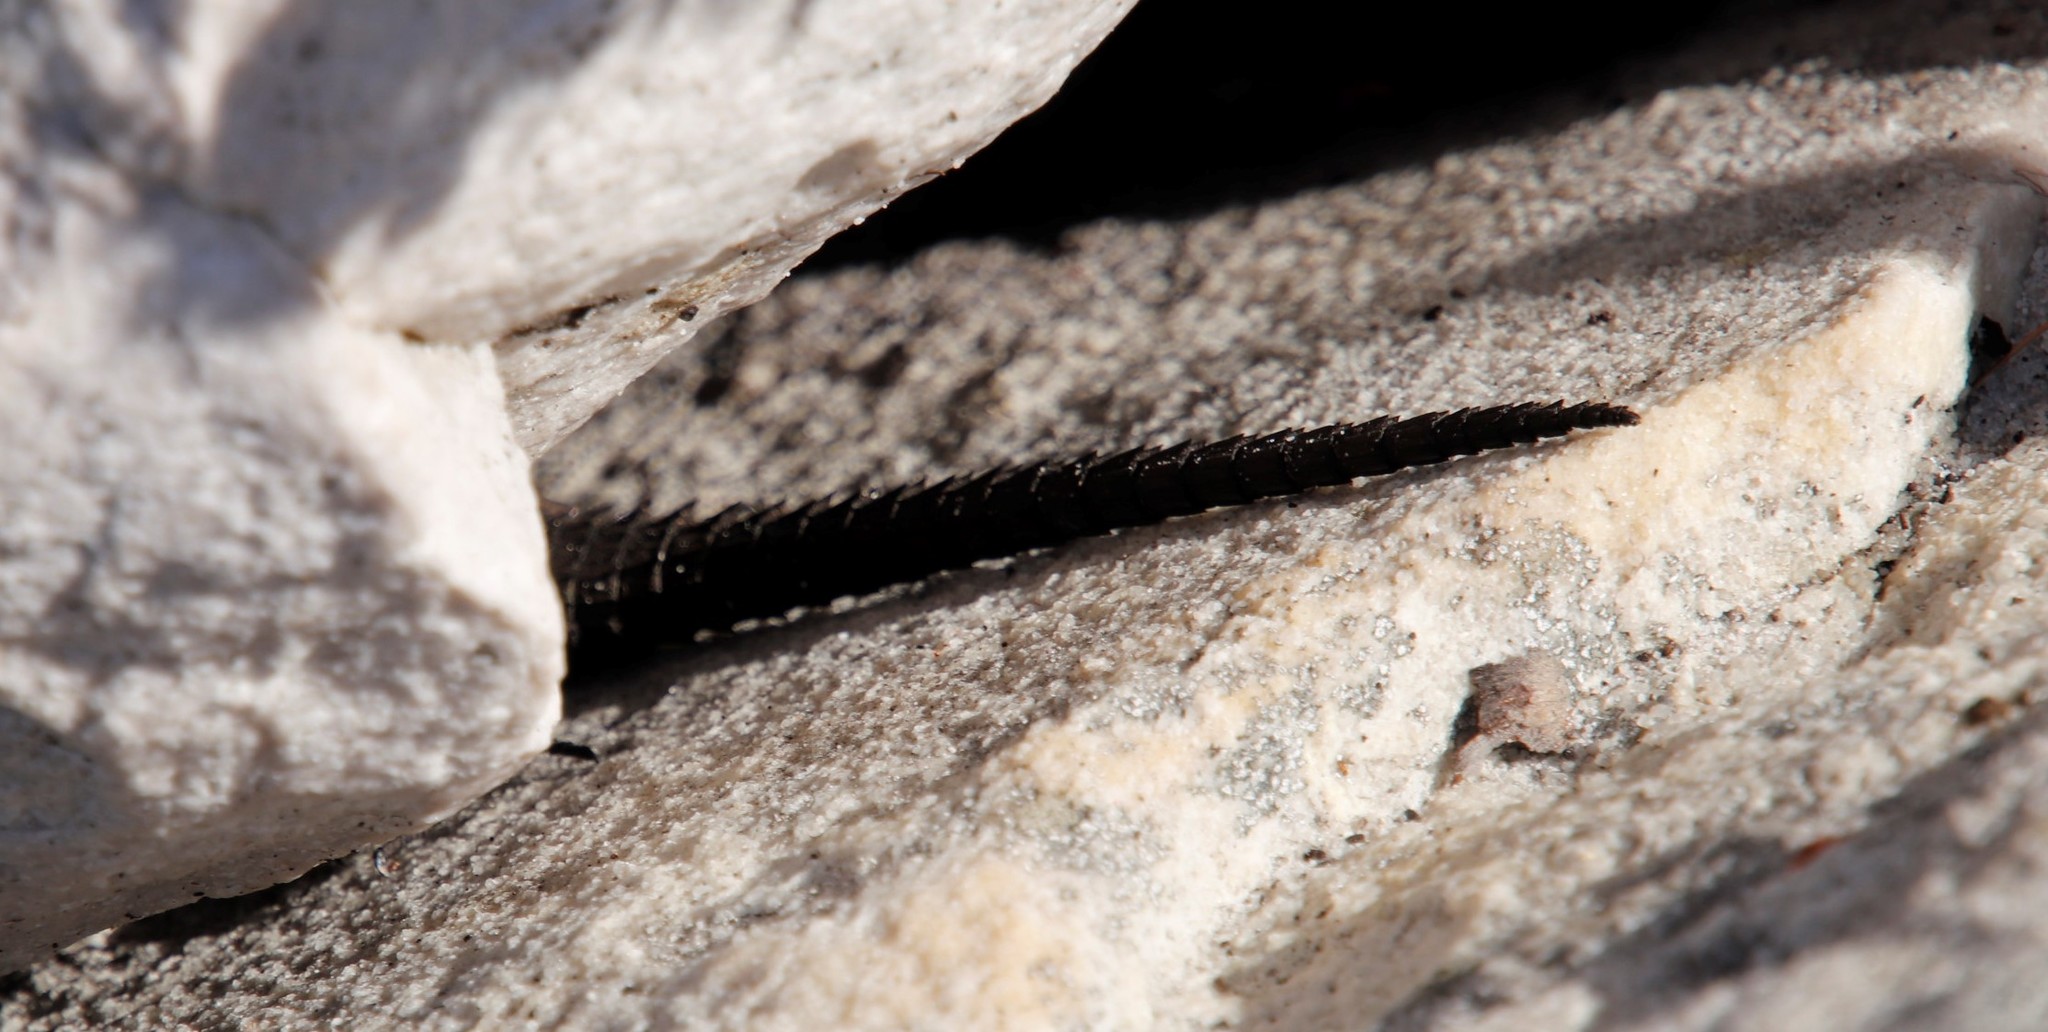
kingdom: Animalia
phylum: Chordata
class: Squamata
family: Cordylidae
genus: Cordylus
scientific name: Cordylus niger
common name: Black girdled lizard
